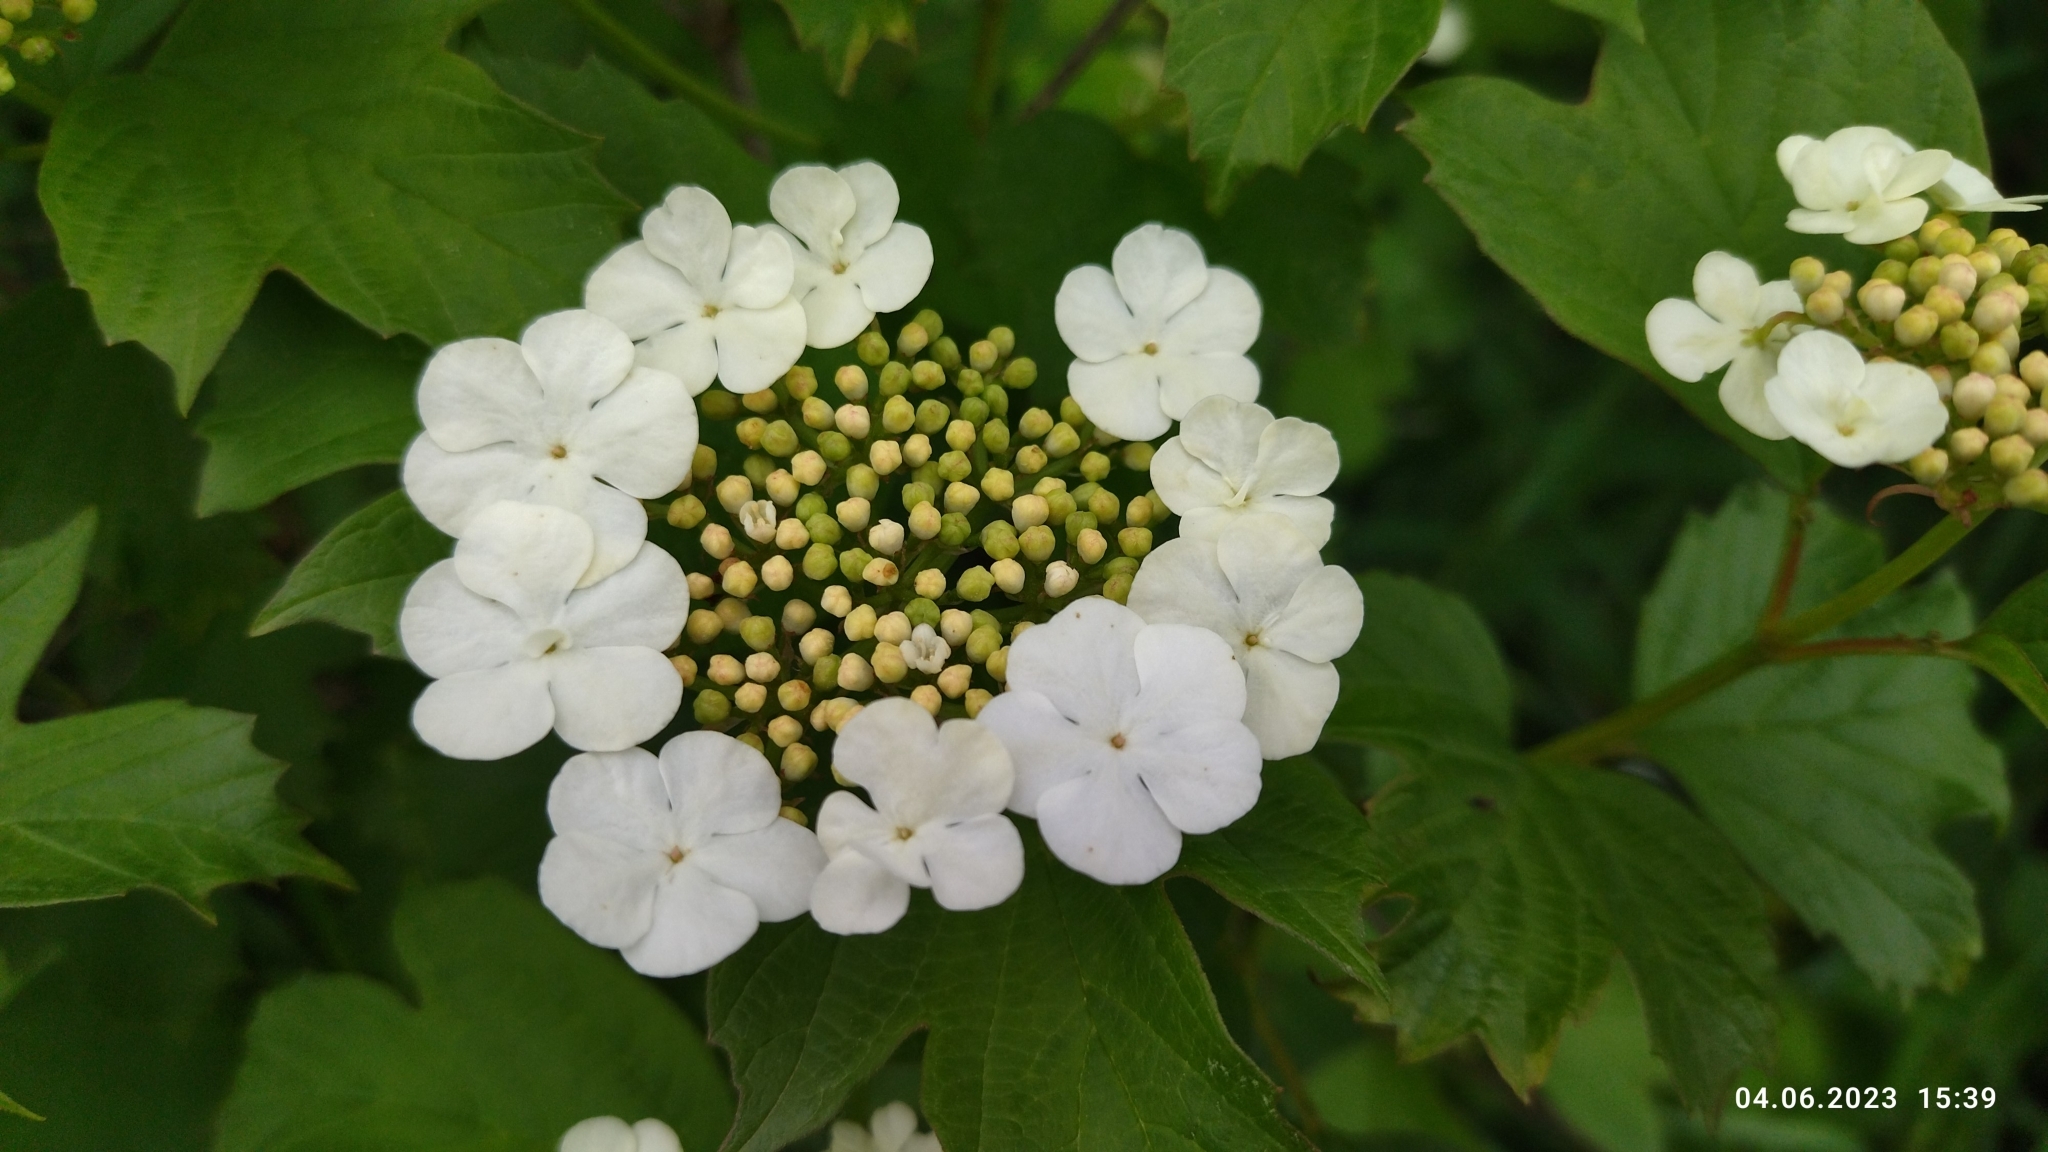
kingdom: Plantae
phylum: Tracheophyta
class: Magnoliopsida
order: Dipsacales
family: Viburnaceae
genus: Viburnum
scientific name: Viburnum opulus
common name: Guelder-rose
